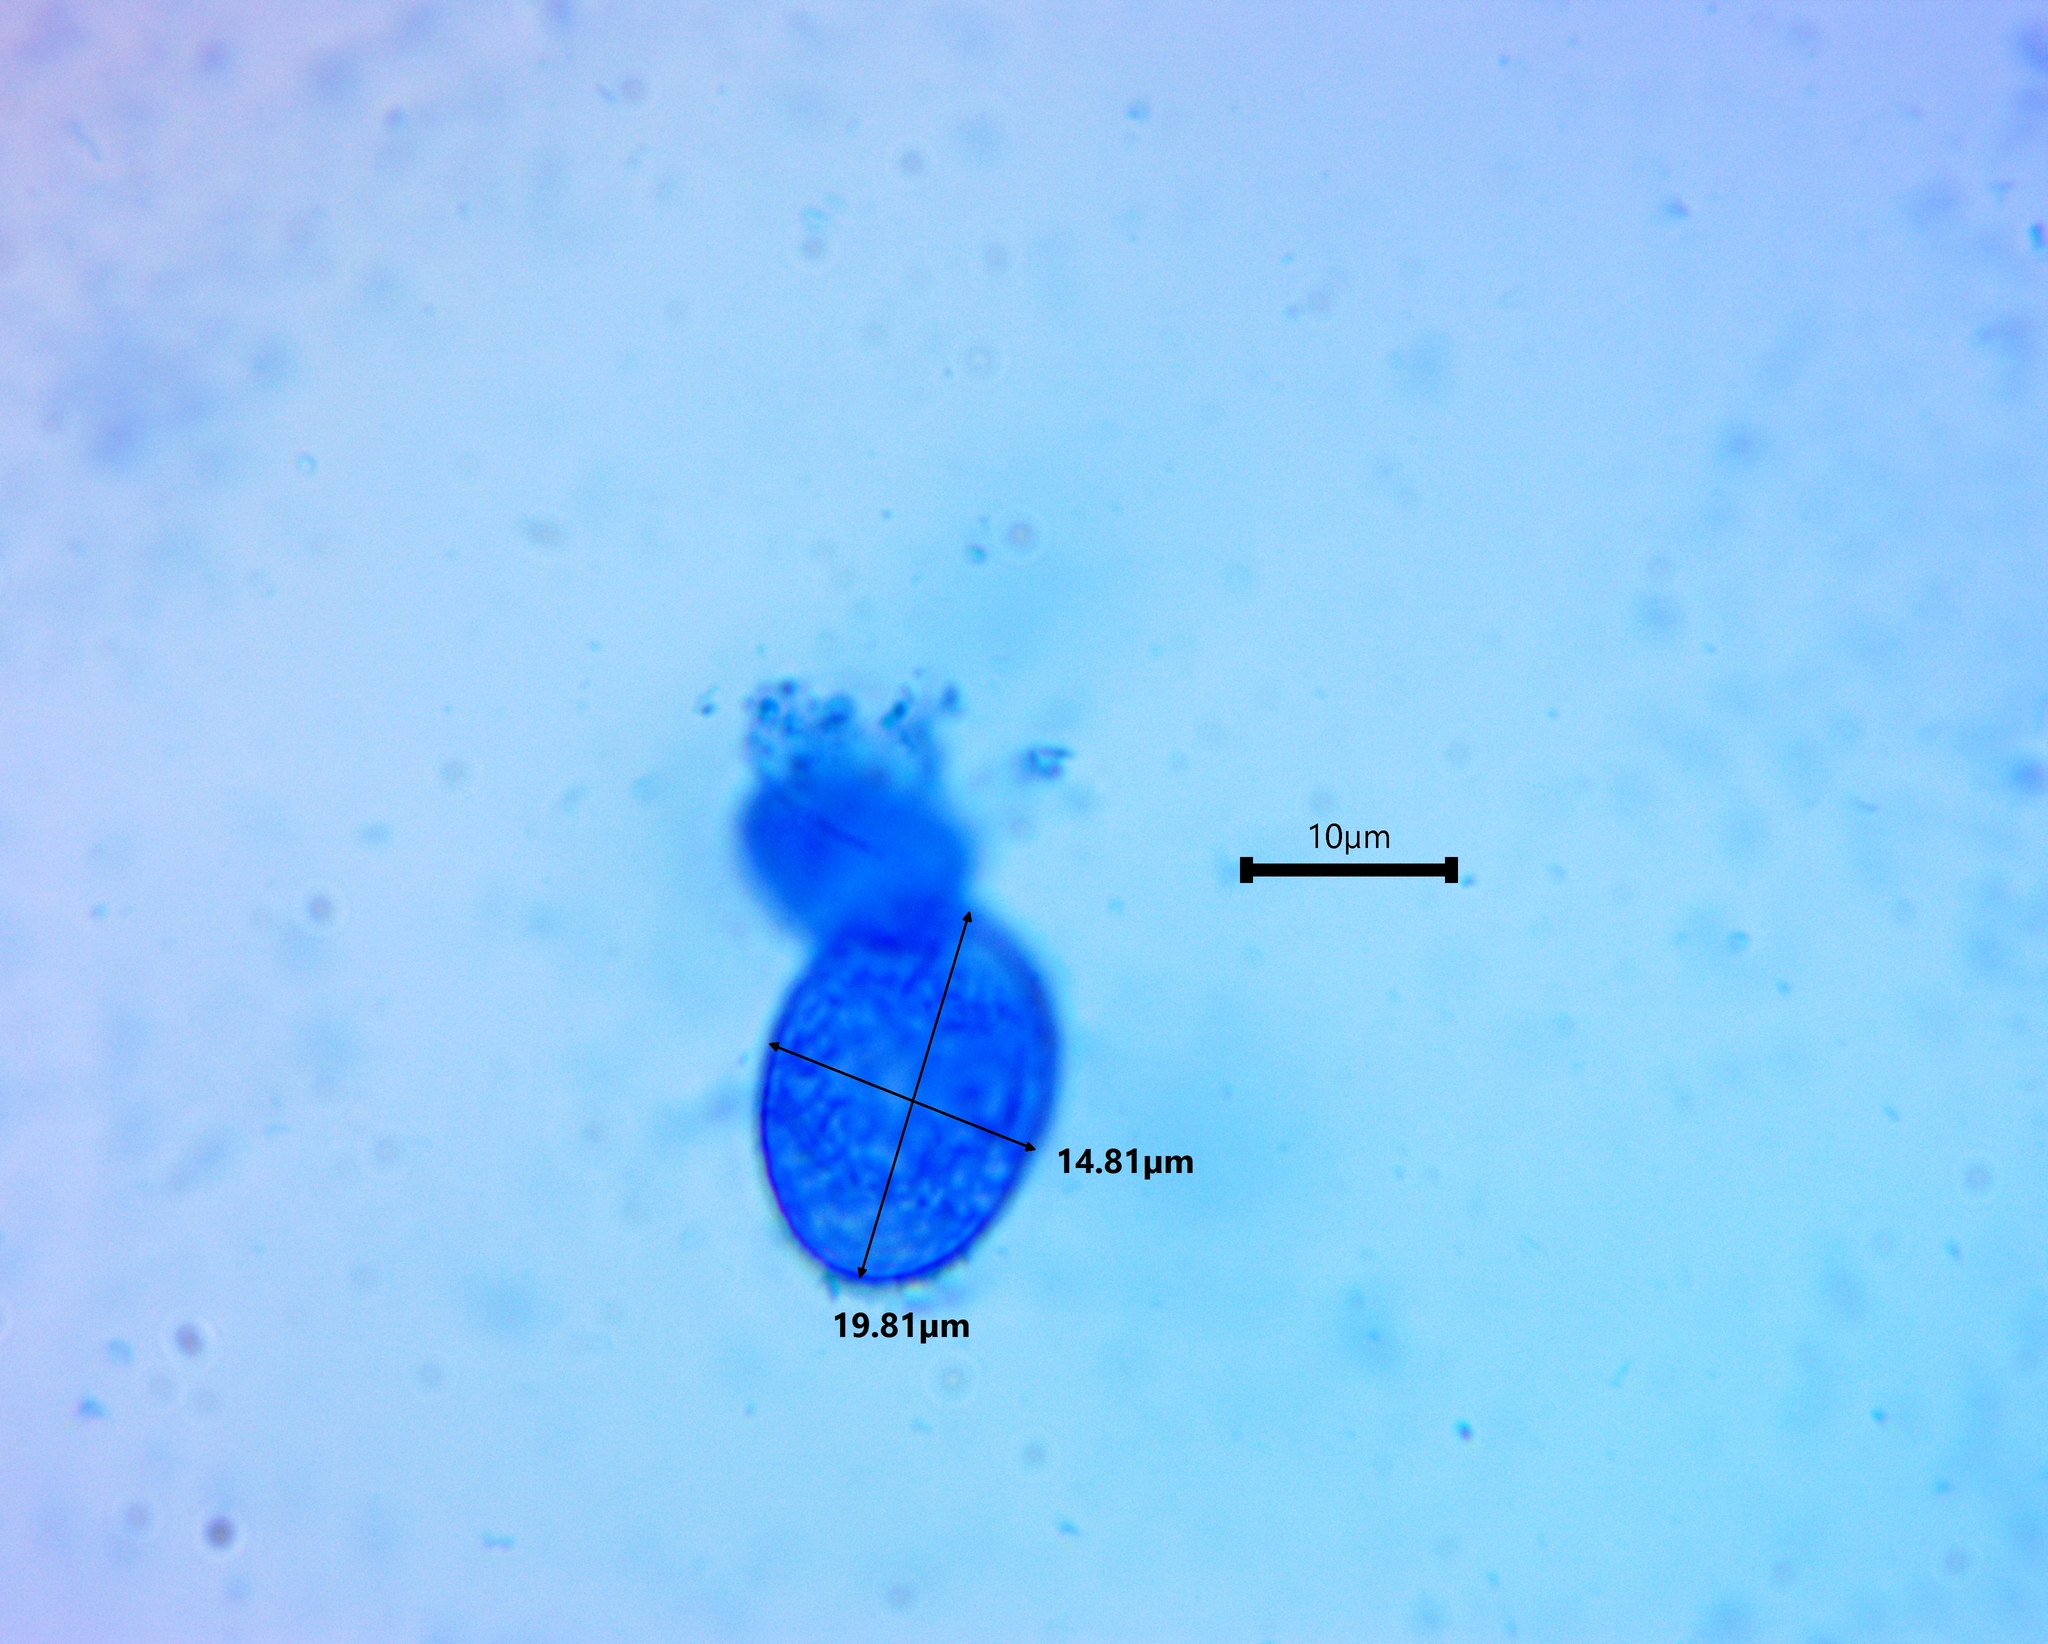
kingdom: Fungi
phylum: Ascomycota
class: Pezizomycetes
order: Pezizales
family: Pyronemataceae
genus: Scutellinia
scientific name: Scutellinia olivascens
